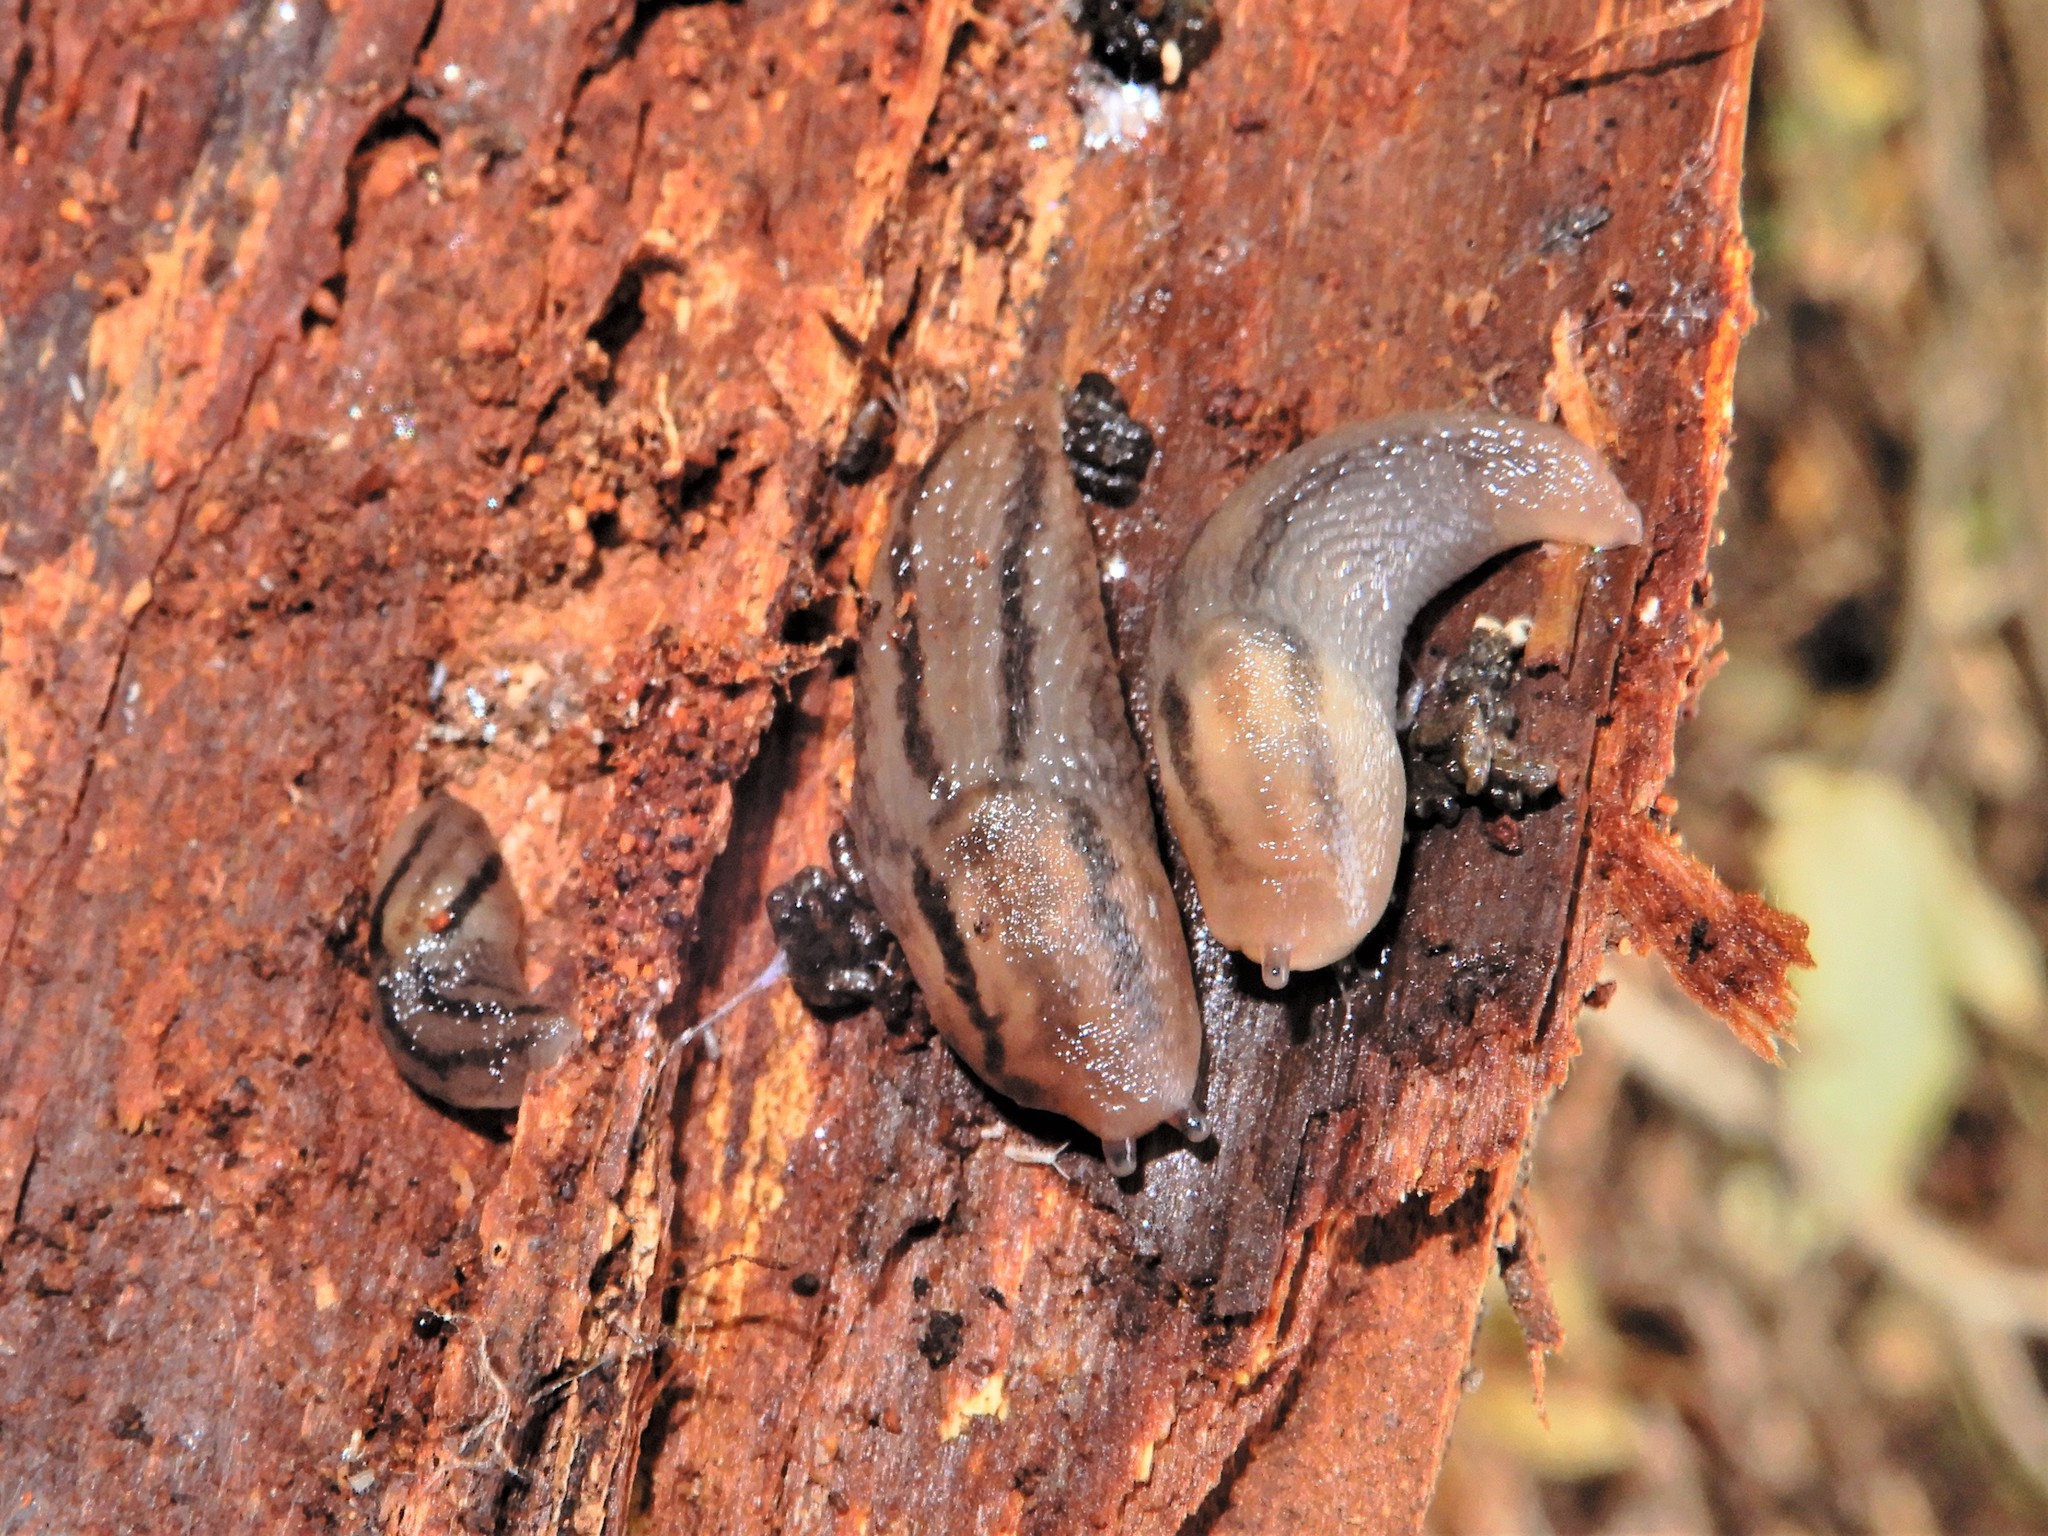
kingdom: Animalia
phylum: Mollusca
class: Gastropoda
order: Stylommatophora
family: Limacidae
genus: Ambigolimax
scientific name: Ambigolimax
